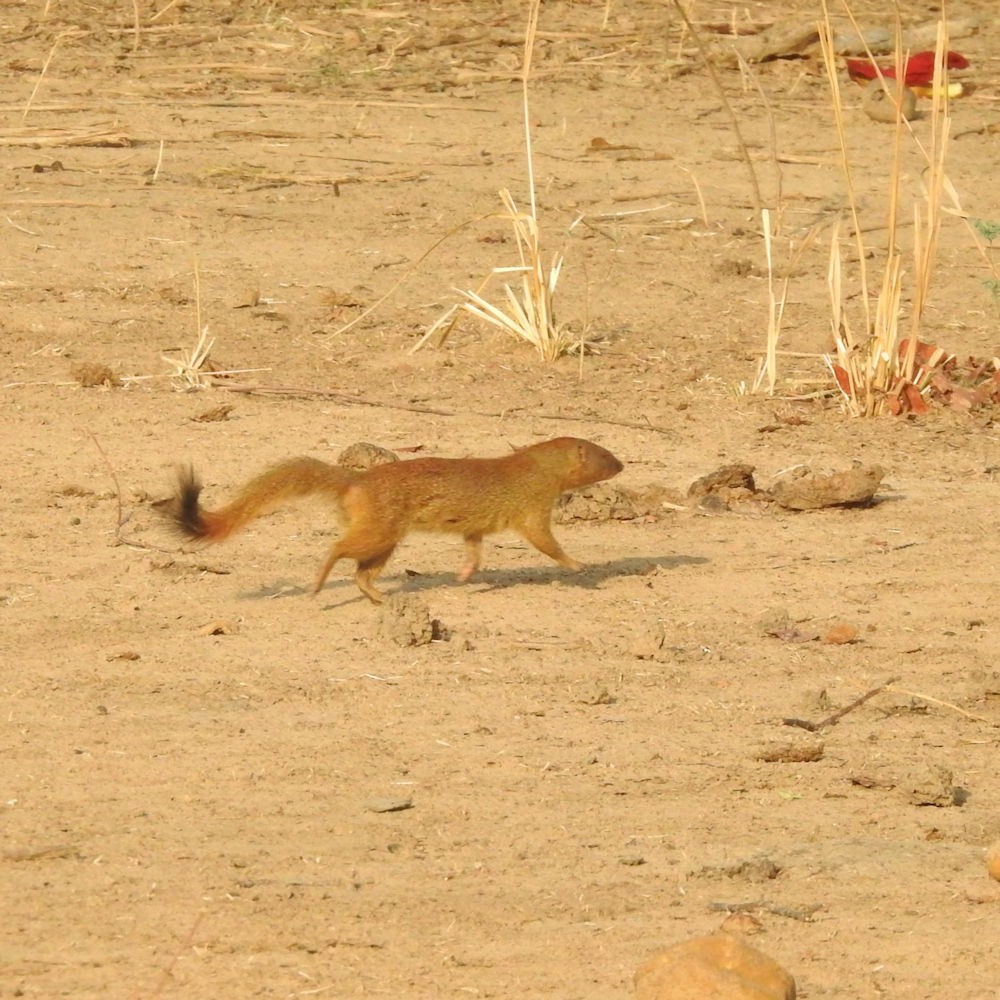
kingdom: Animalia
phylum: Chordata
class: Mammalia
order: Carnivora
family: Herpestidae
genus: Galerella
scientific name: Galerella sanguinea
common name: Slender mongoose
